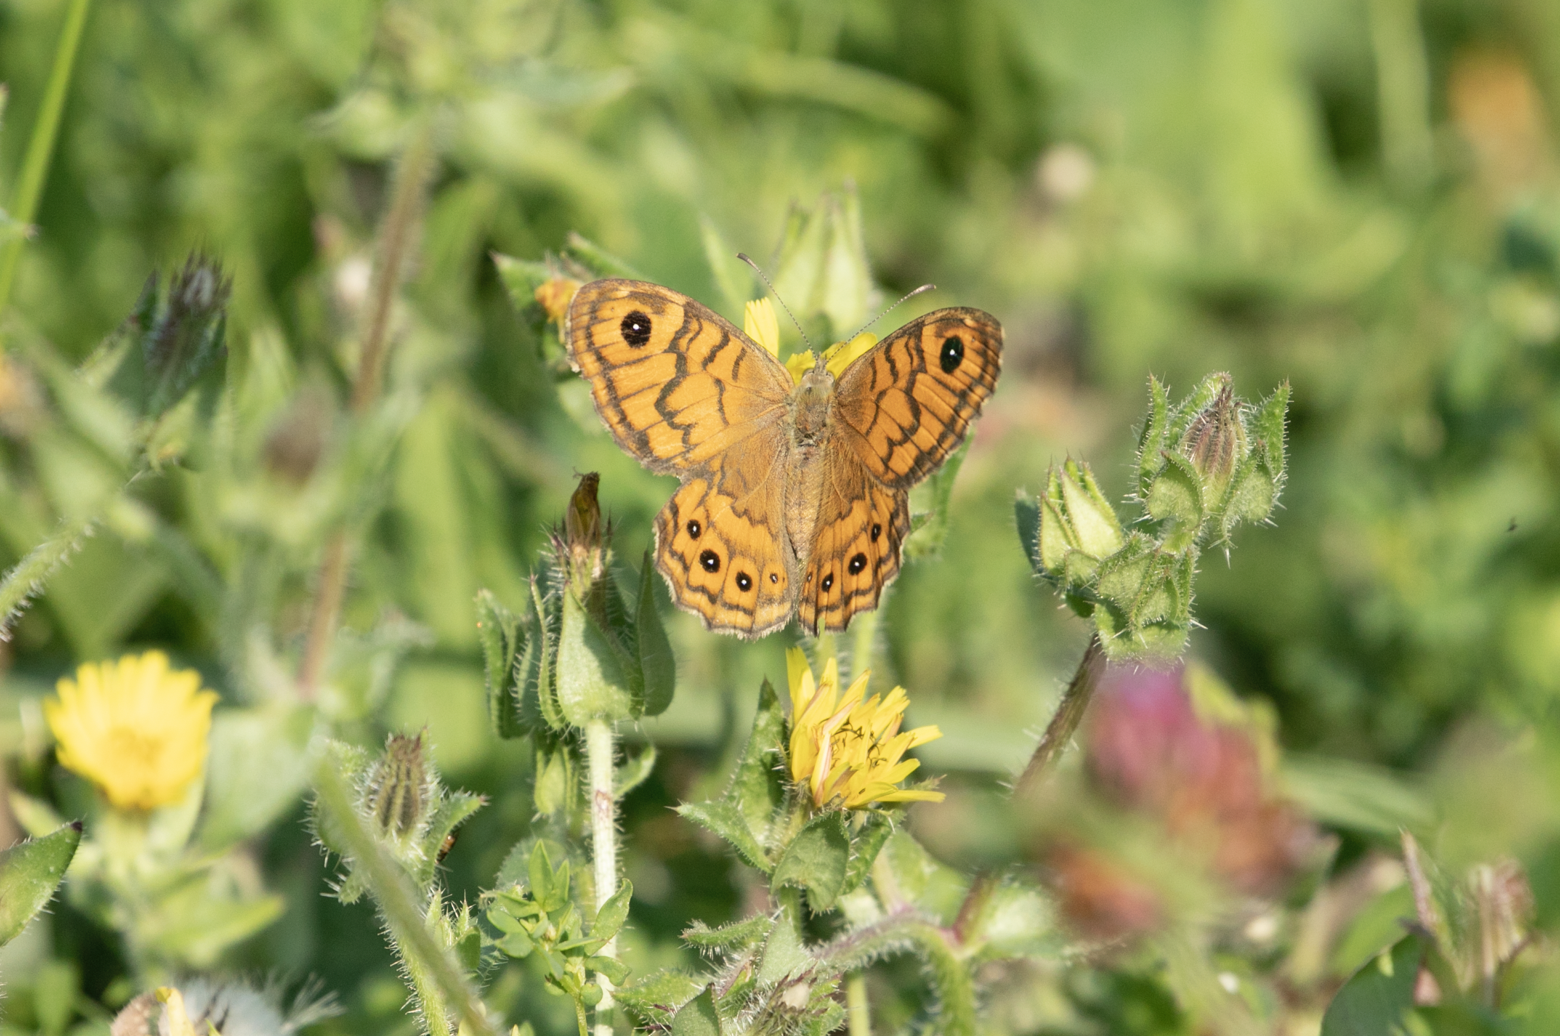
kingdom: Animalia
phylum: Arthropoda
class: Insecta
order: Lepidoptera
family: Nymphalidae
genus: Pararge
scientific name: Pararge Lasiommata megera
